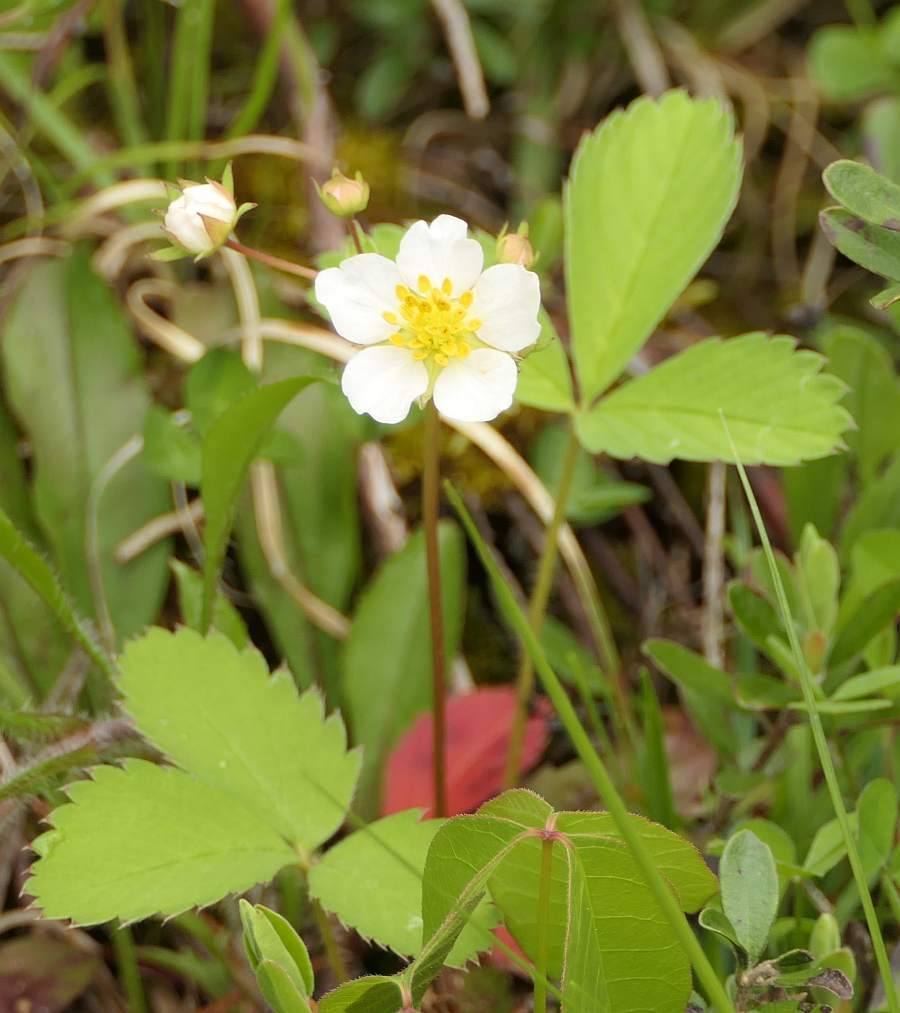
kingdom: Plantae
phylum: Tracheophyta
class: Magnoliopsida
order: Rosales
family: Rosaceae
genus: Fragaria
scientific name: Fragaria virginiana
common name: Thickleaved wild strawberry
